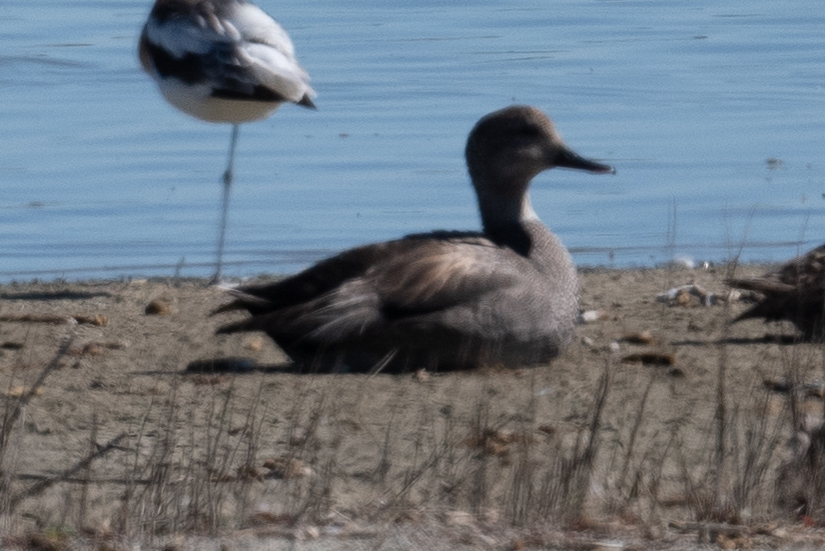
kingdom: Animalia
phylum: Chordata
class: Aves
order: Anseriformes
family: Anatidae
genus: Mareca
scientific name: Mareca strepera
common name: Gadwall
